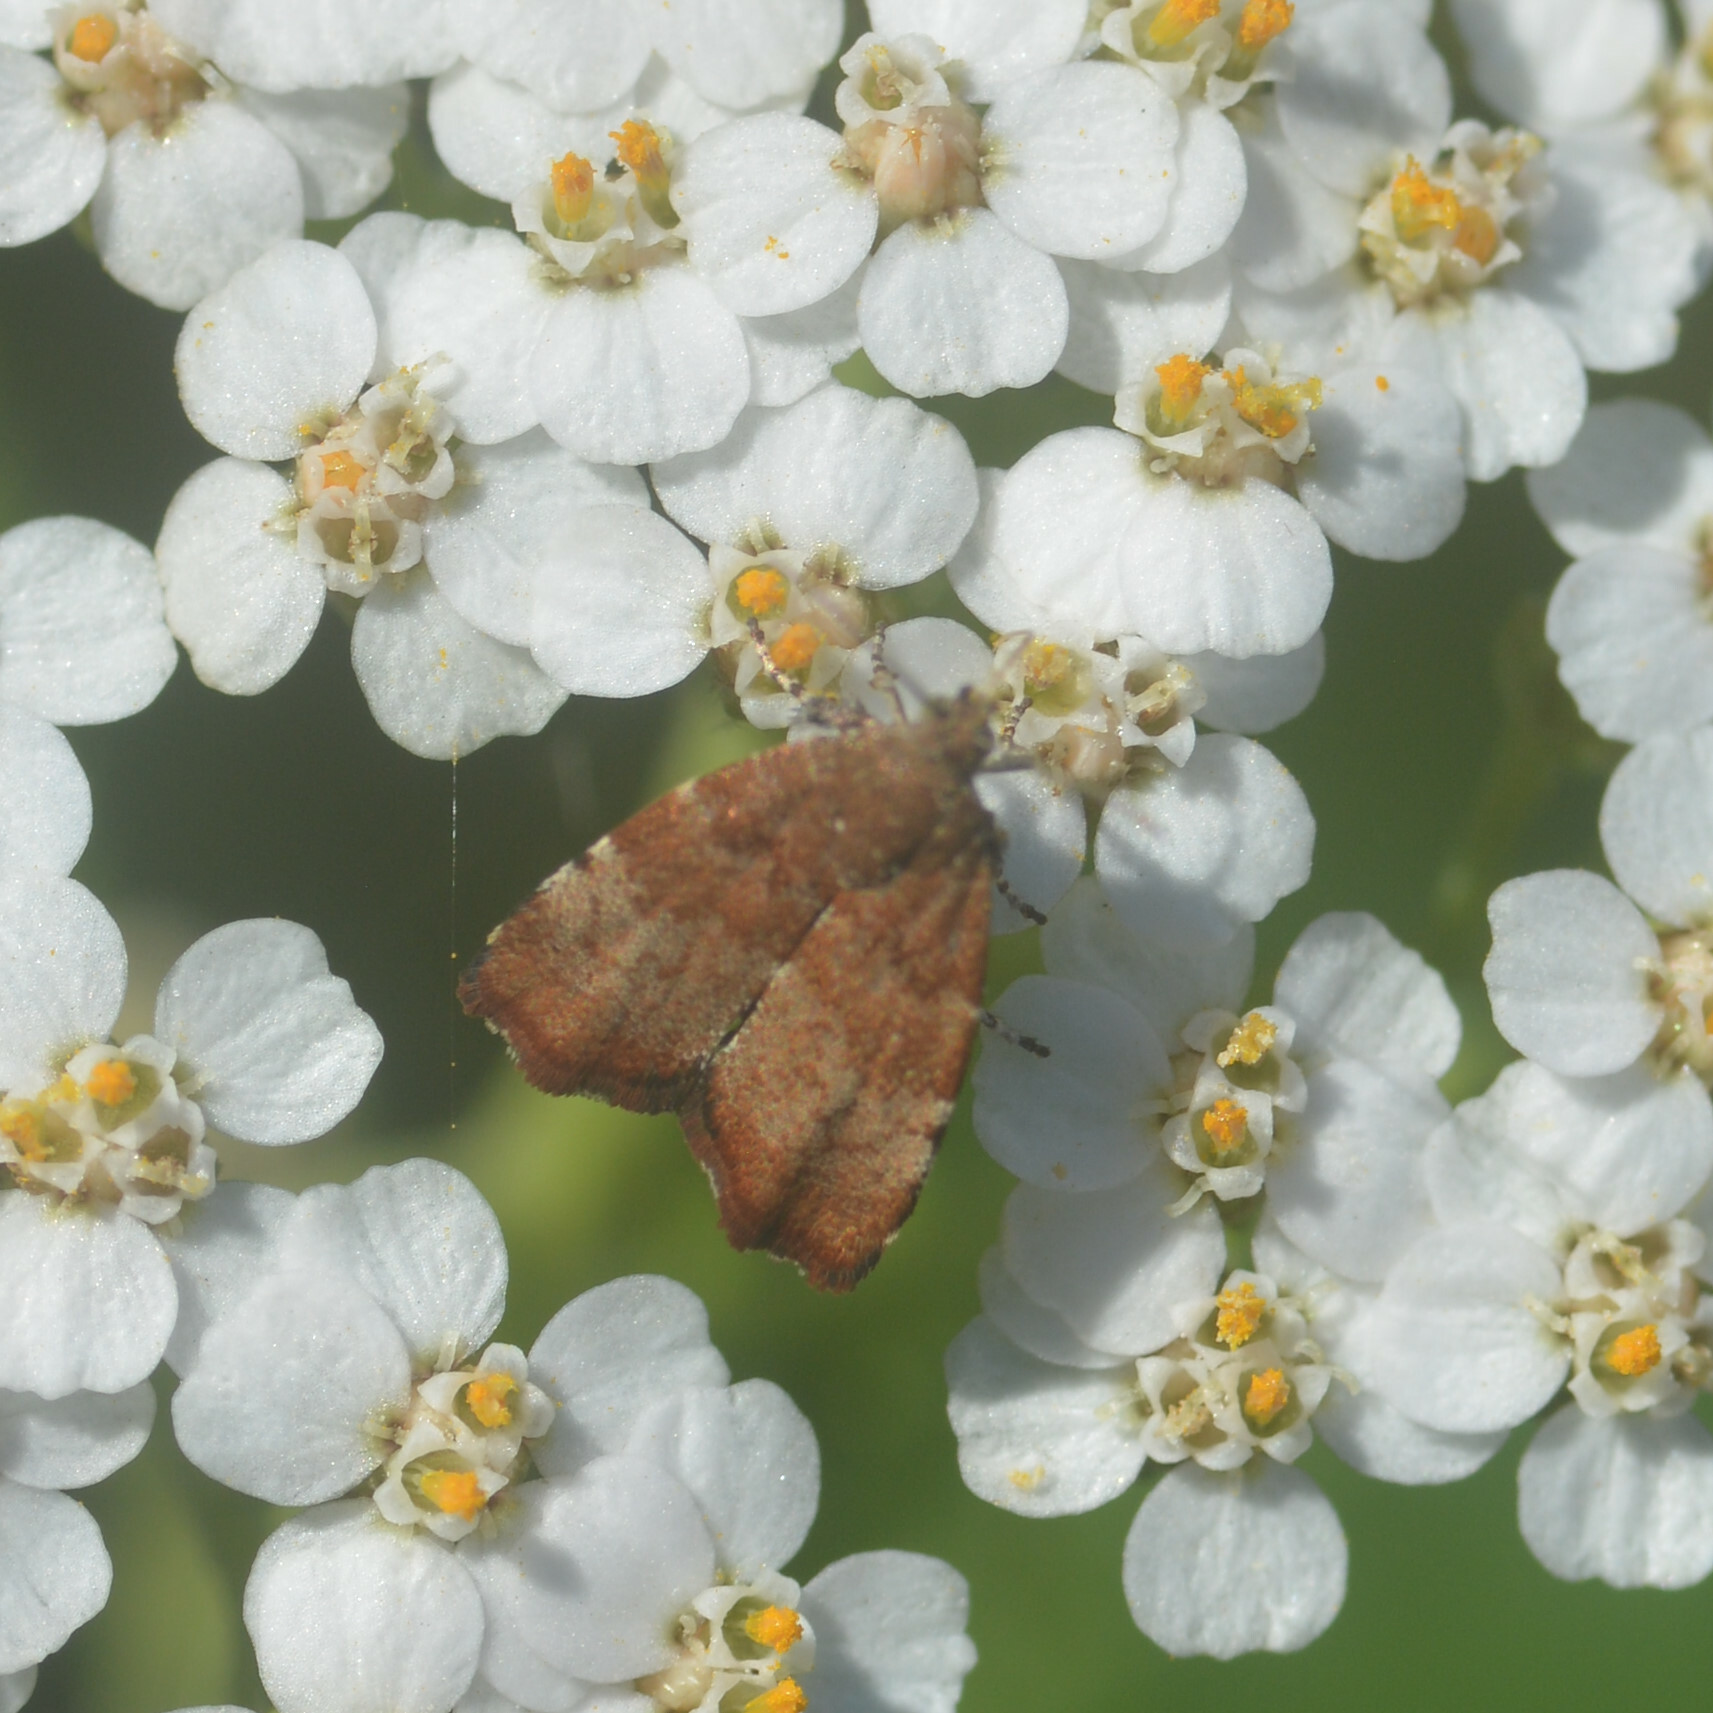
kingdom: Animalia
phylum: Arthropoda
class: Insecta
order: Lepidoptera
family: Choreutidae
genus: Choreutis
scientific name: Choreutis pariana
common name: Apple leaf skeletoniser
